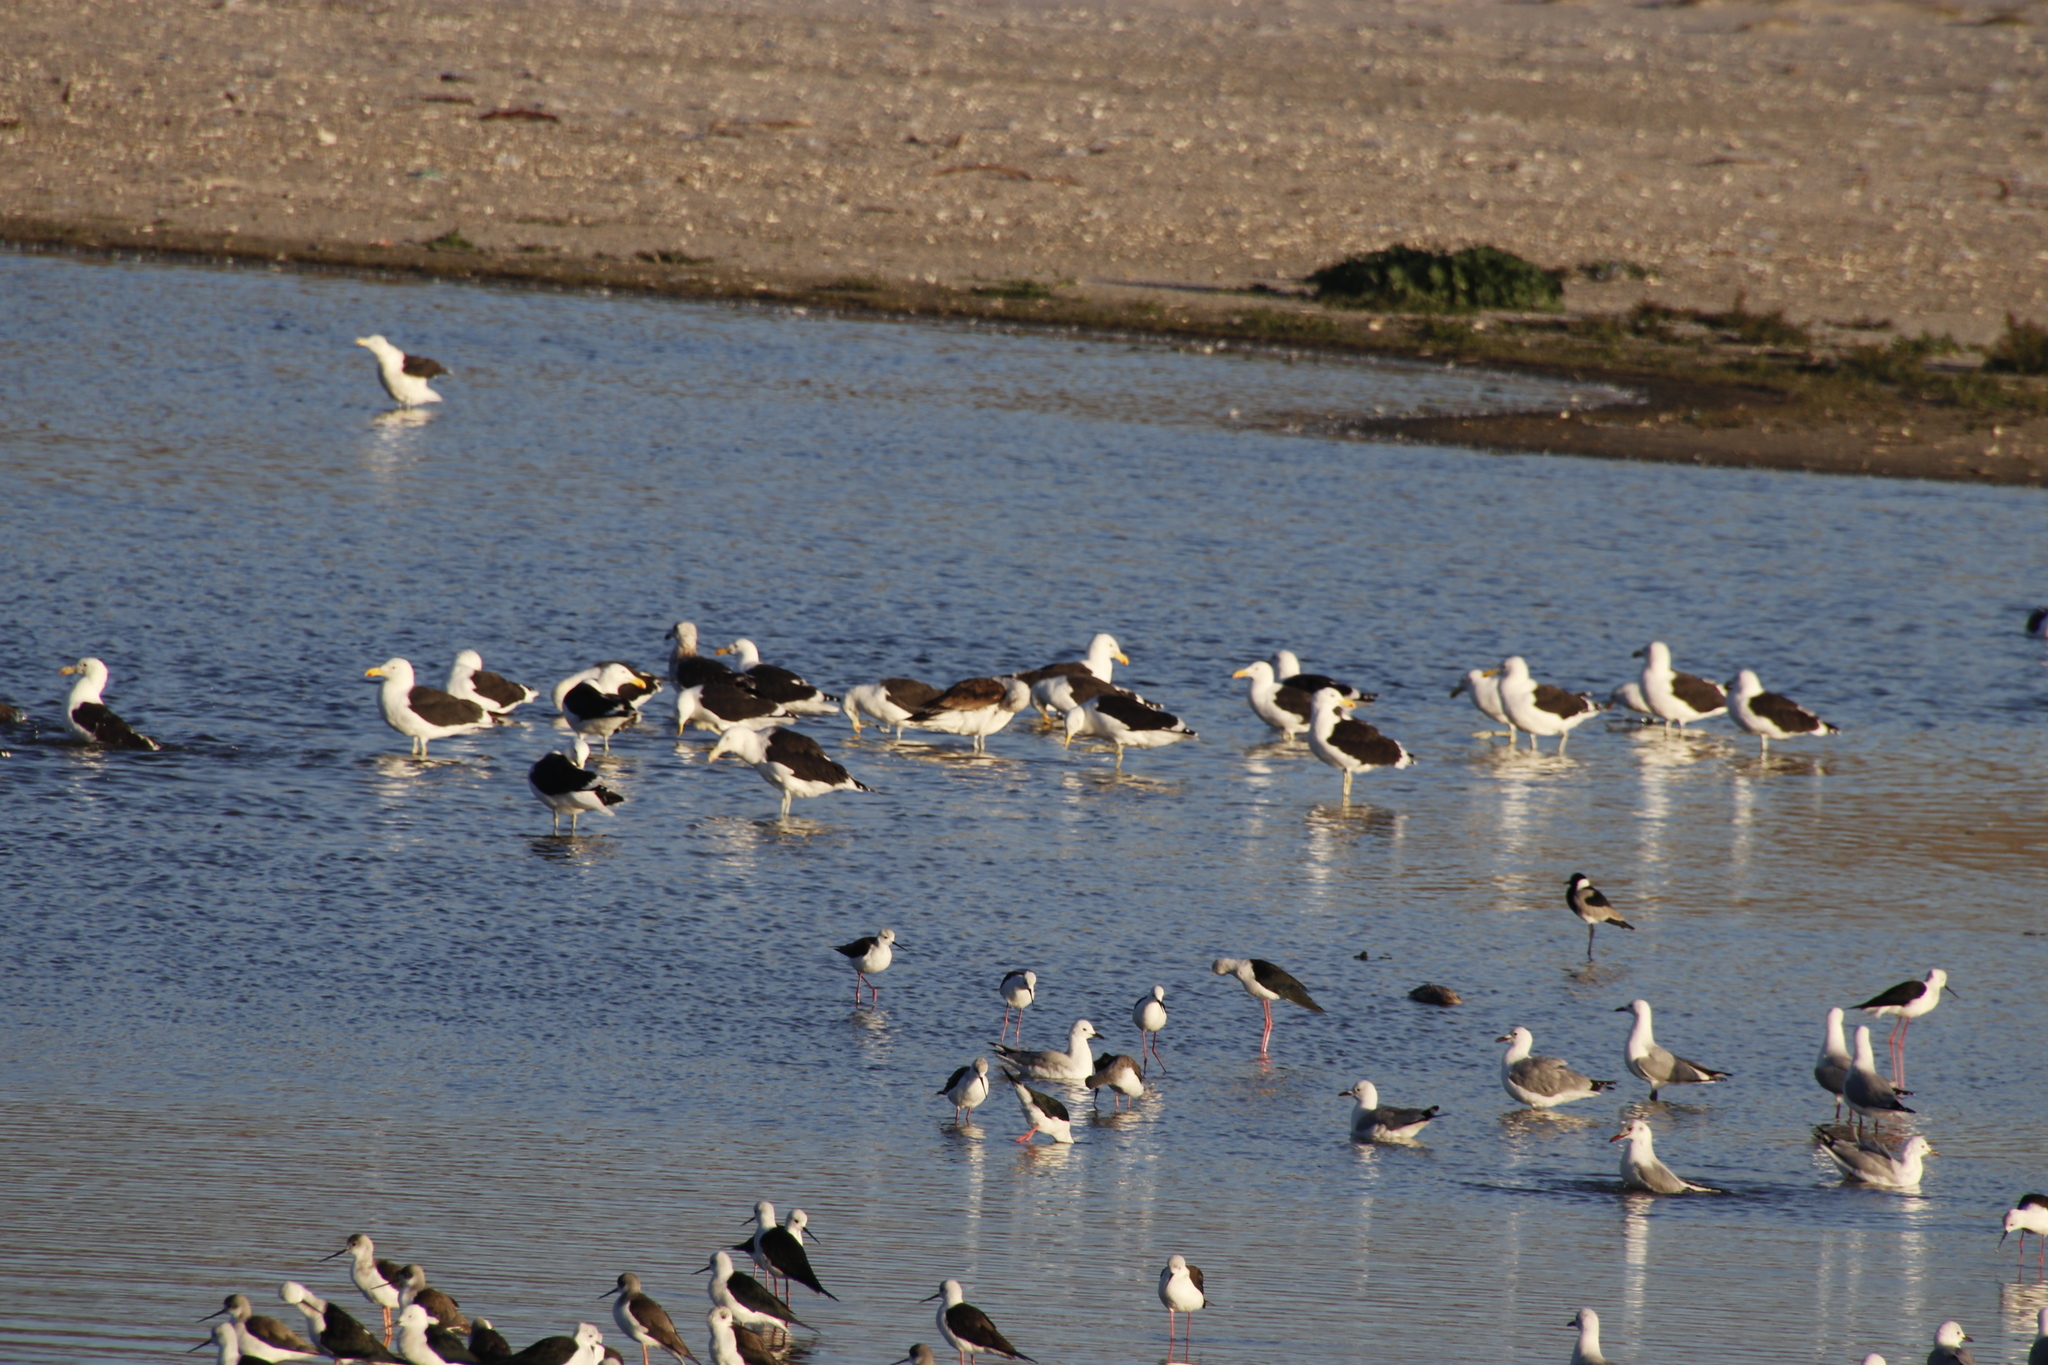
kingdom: Animalia
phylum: Chordata
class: Aves
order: Charadriiformes
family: Laridae
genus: Larus
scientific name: Larus dominicanus
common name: Kelp gull
